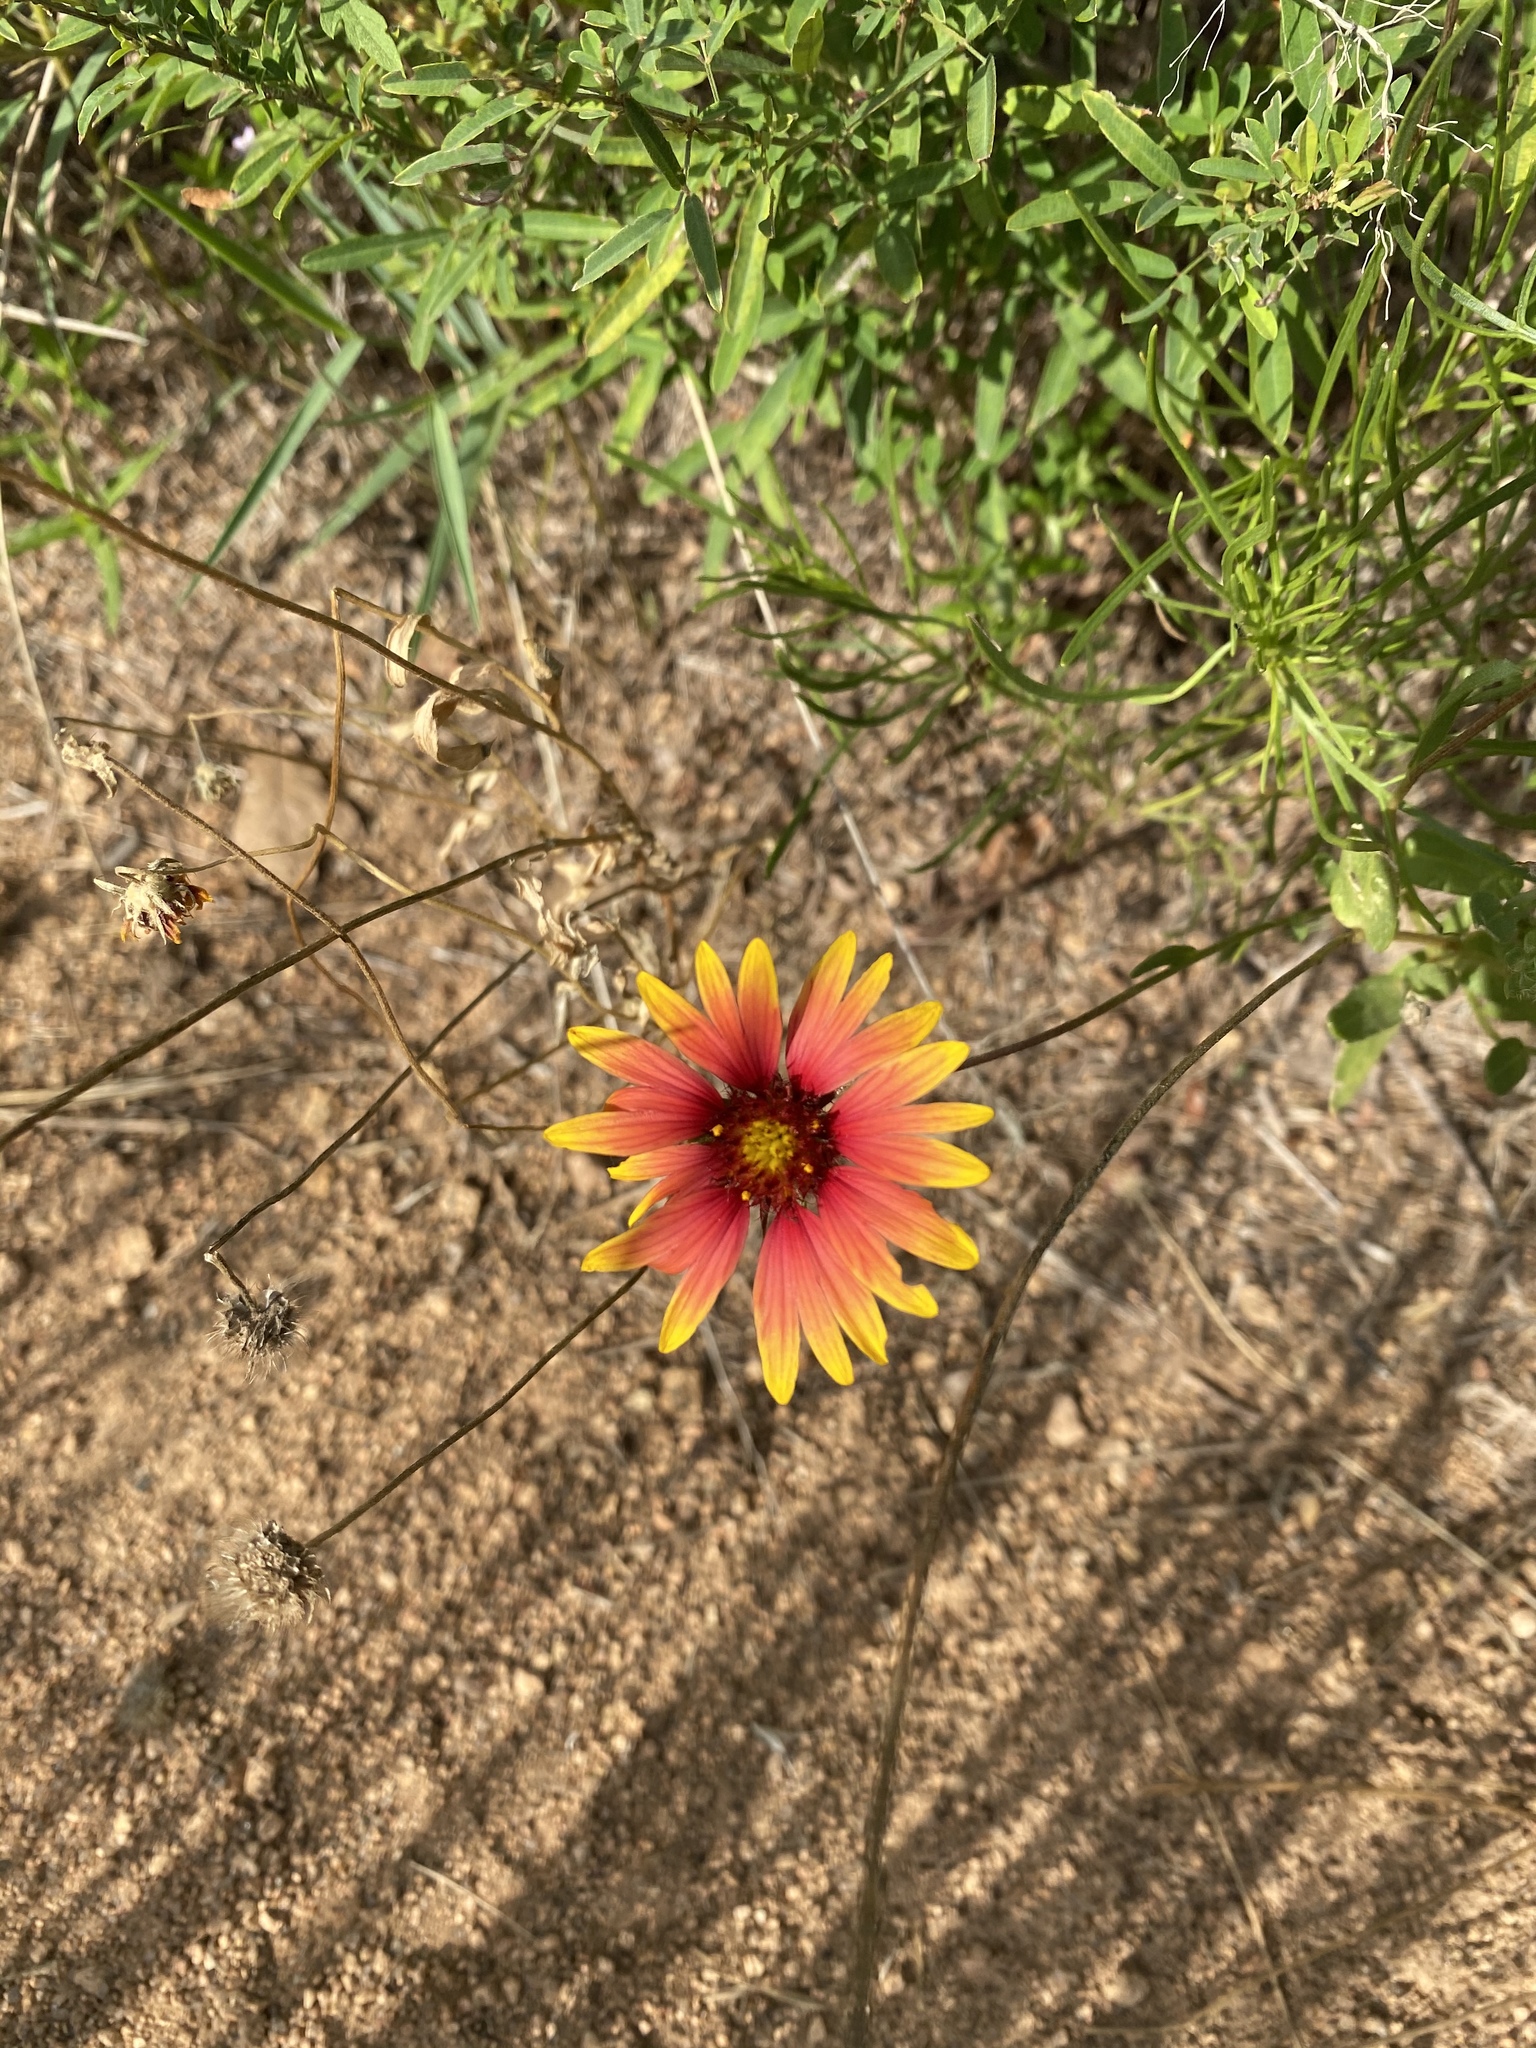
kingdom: Plantae
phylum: Tracheophyta
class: Magnoliopsida
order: Asterales
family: Asteraceae
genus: Gaillardia
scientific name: Gaillardia pulchella
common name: Firewheel
